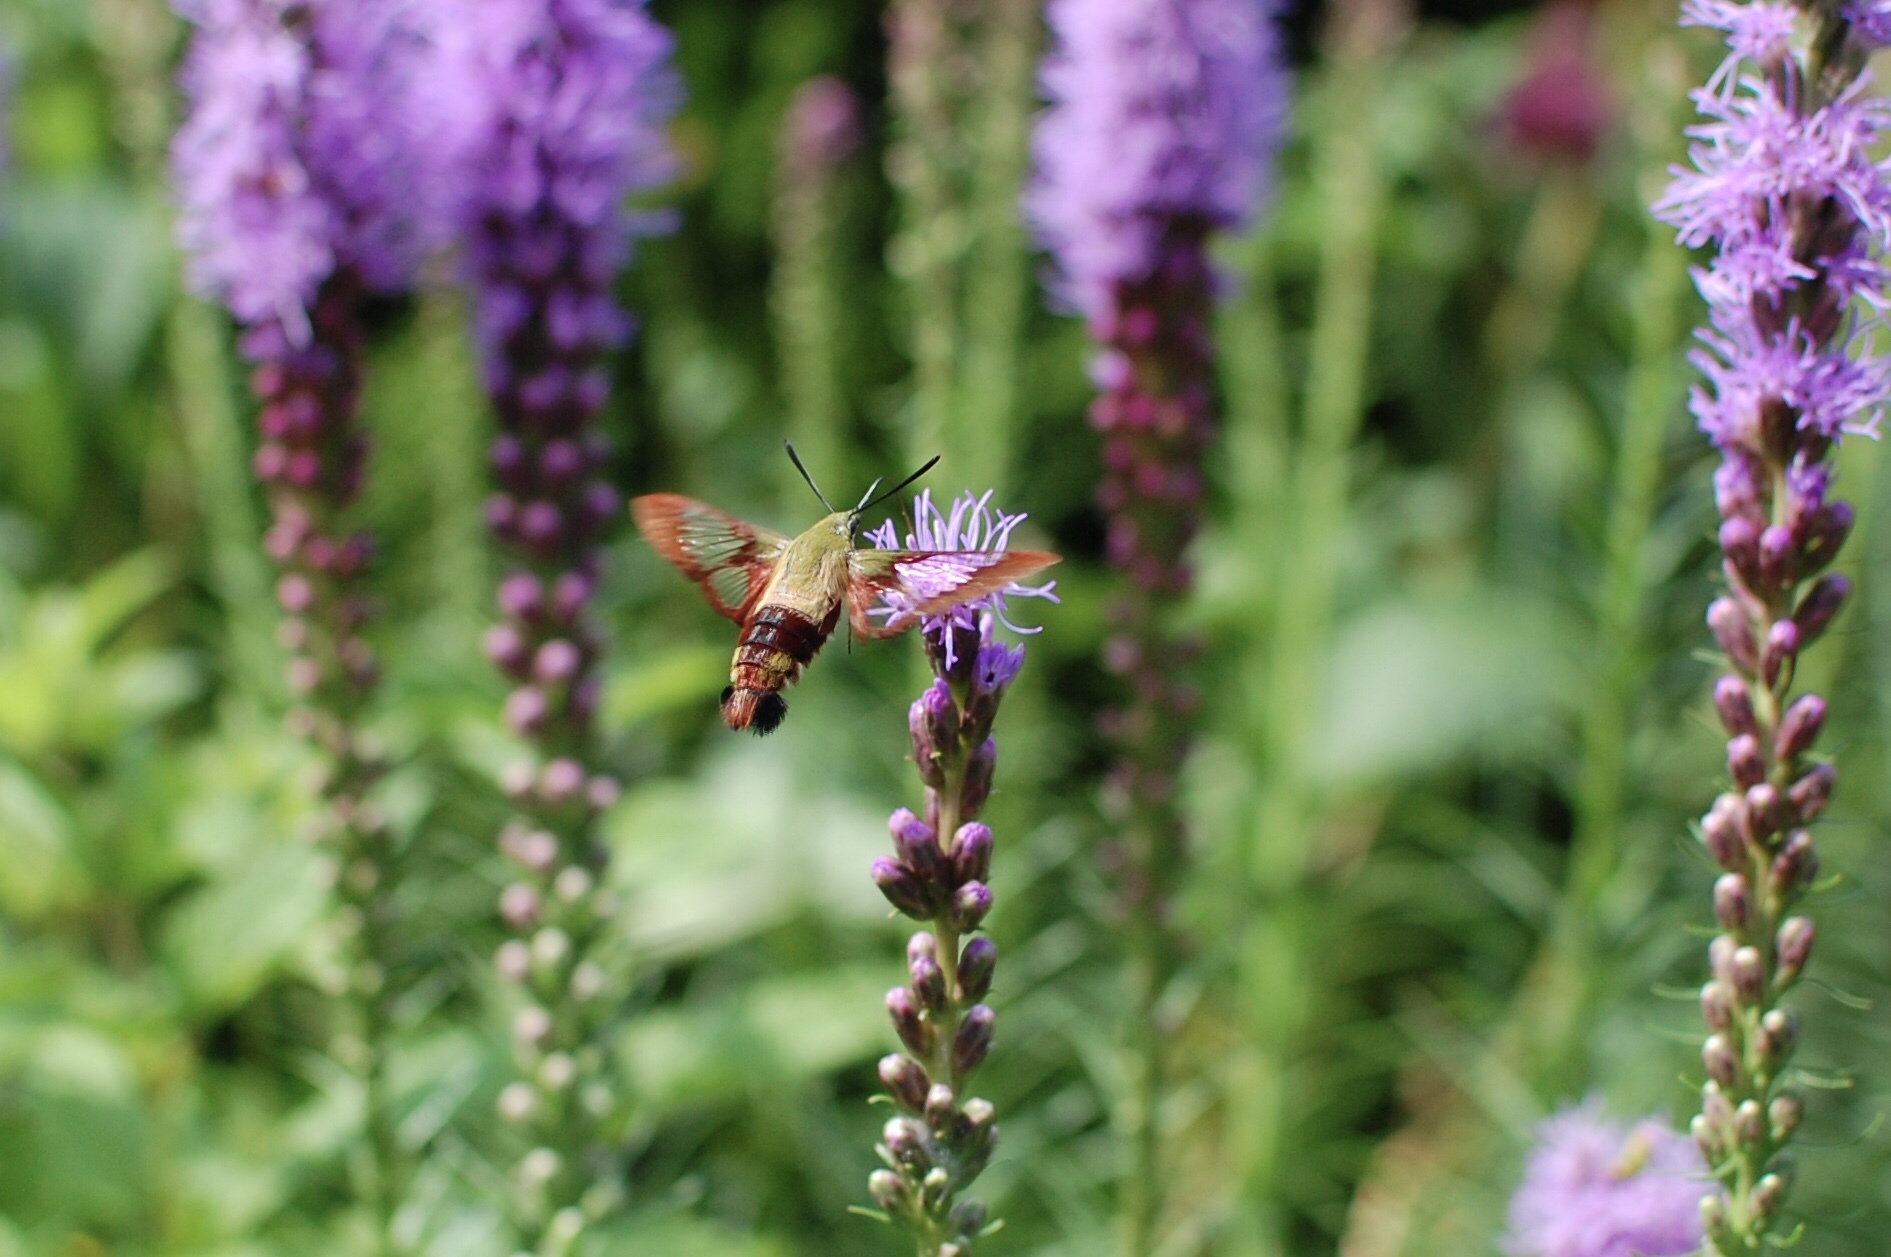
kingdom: Animalia
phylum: Arthropoda
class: Insecta
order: Lepidoptera
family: Sphingidae
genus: Hemaris
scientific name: Hemaris thysbe
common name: Common clear-wing
